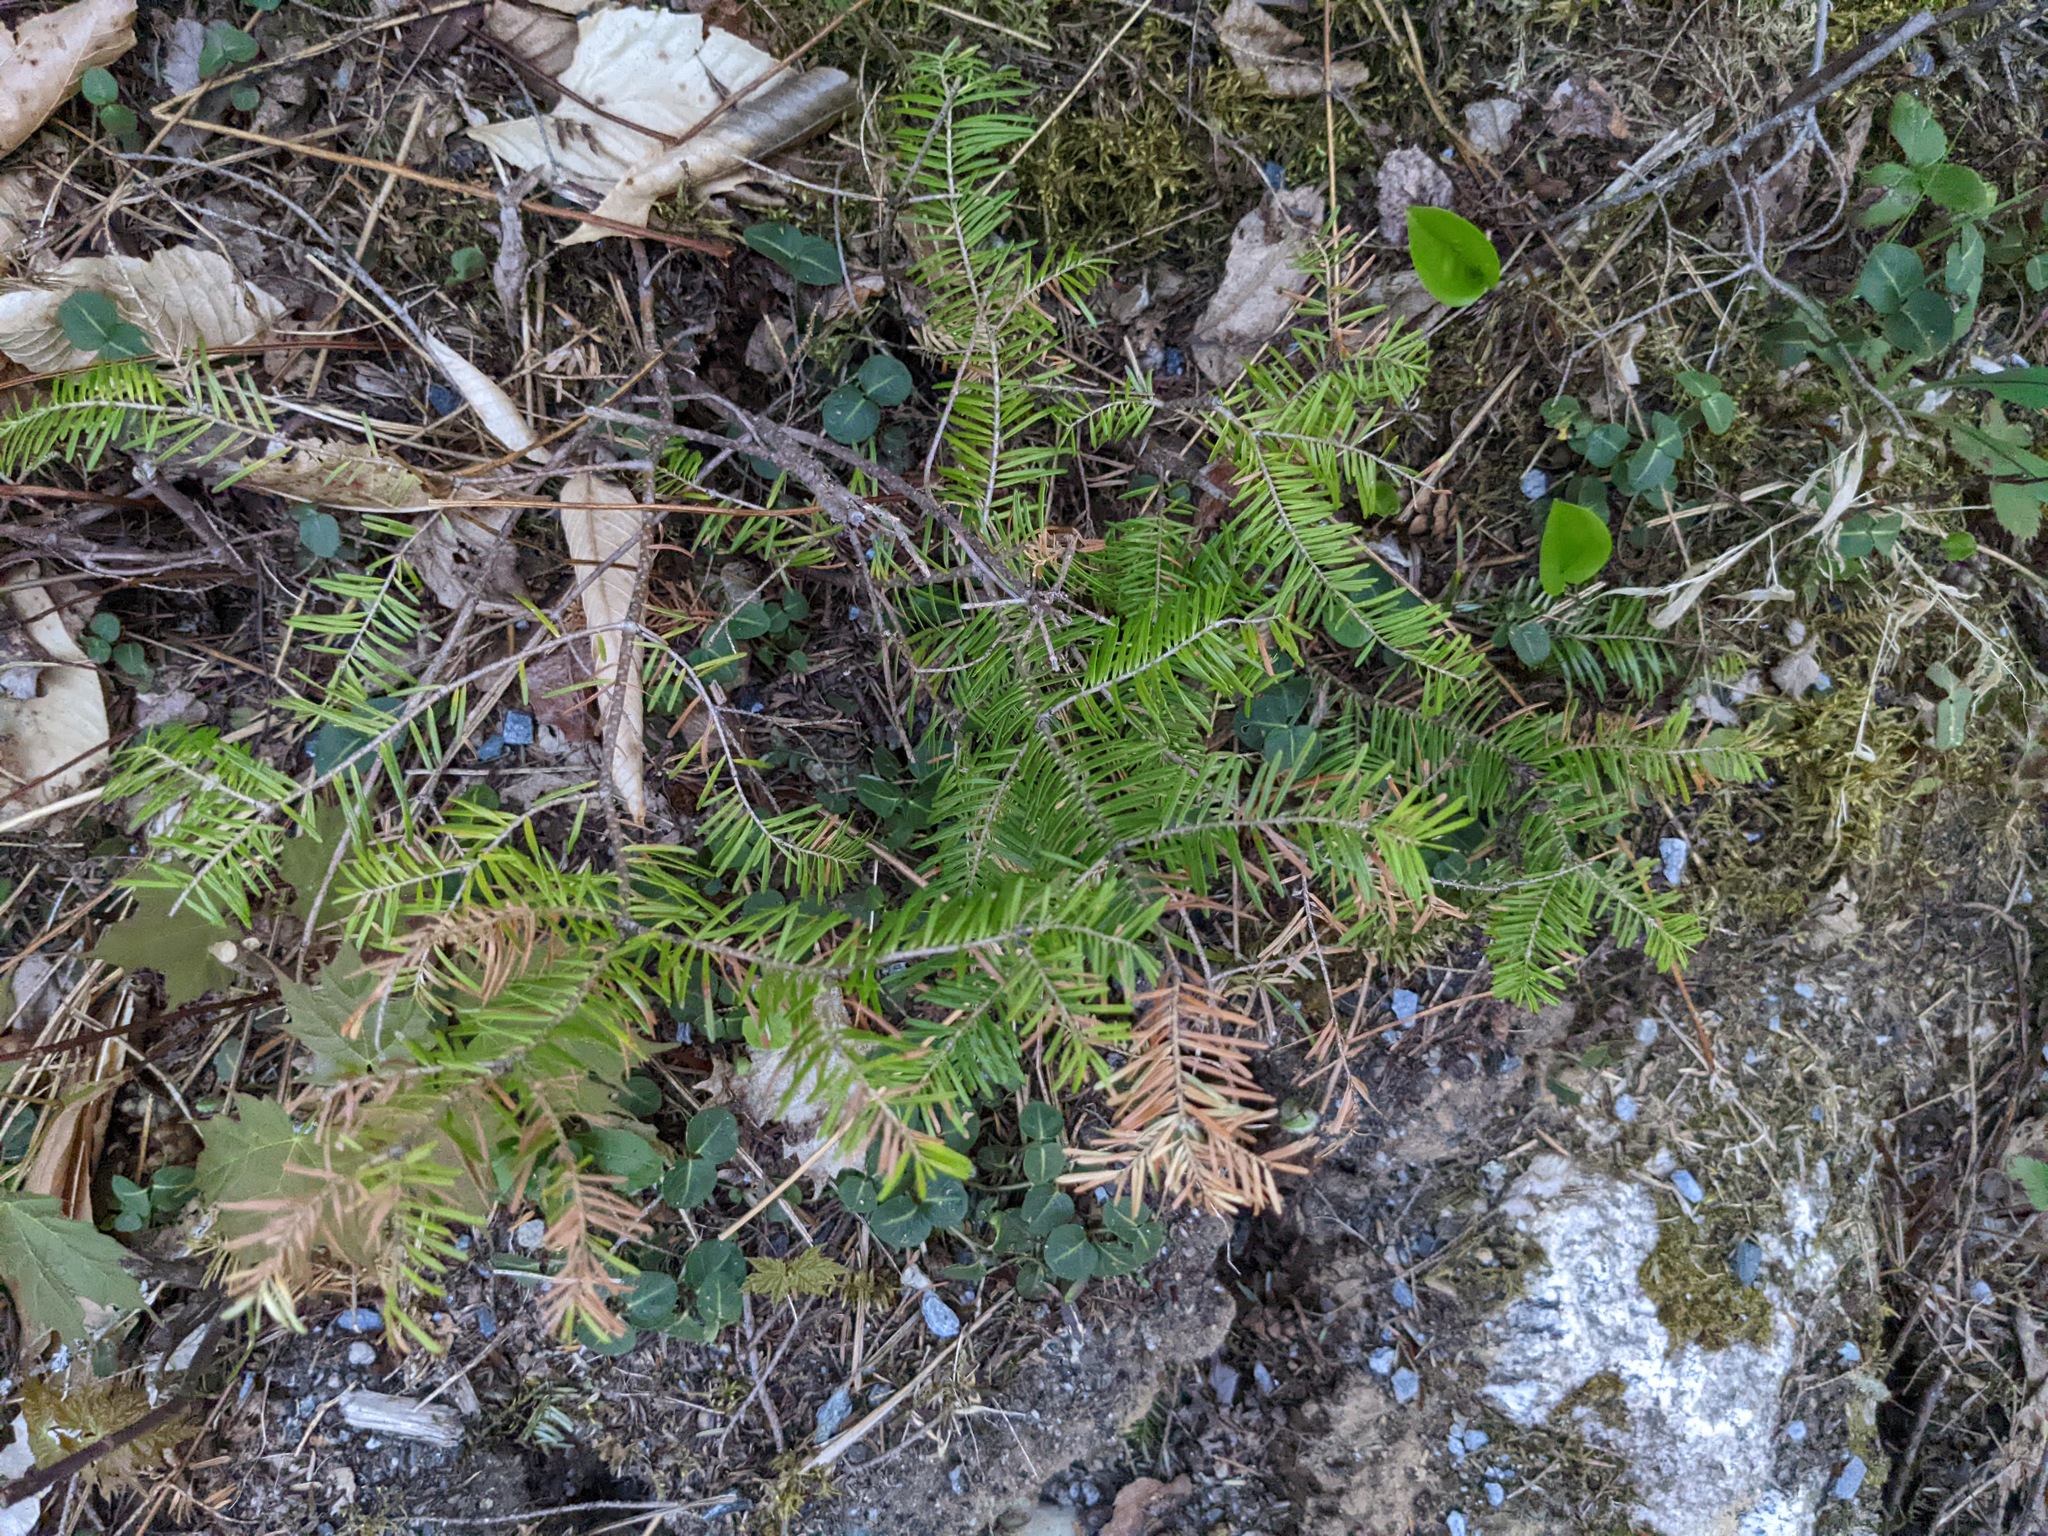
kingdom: Plantae
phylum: Tracheophyta
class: Pinopsida
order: Pinales
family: Pinaceae
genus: Abies
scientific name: Abies balsamea
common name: Balsam fir
